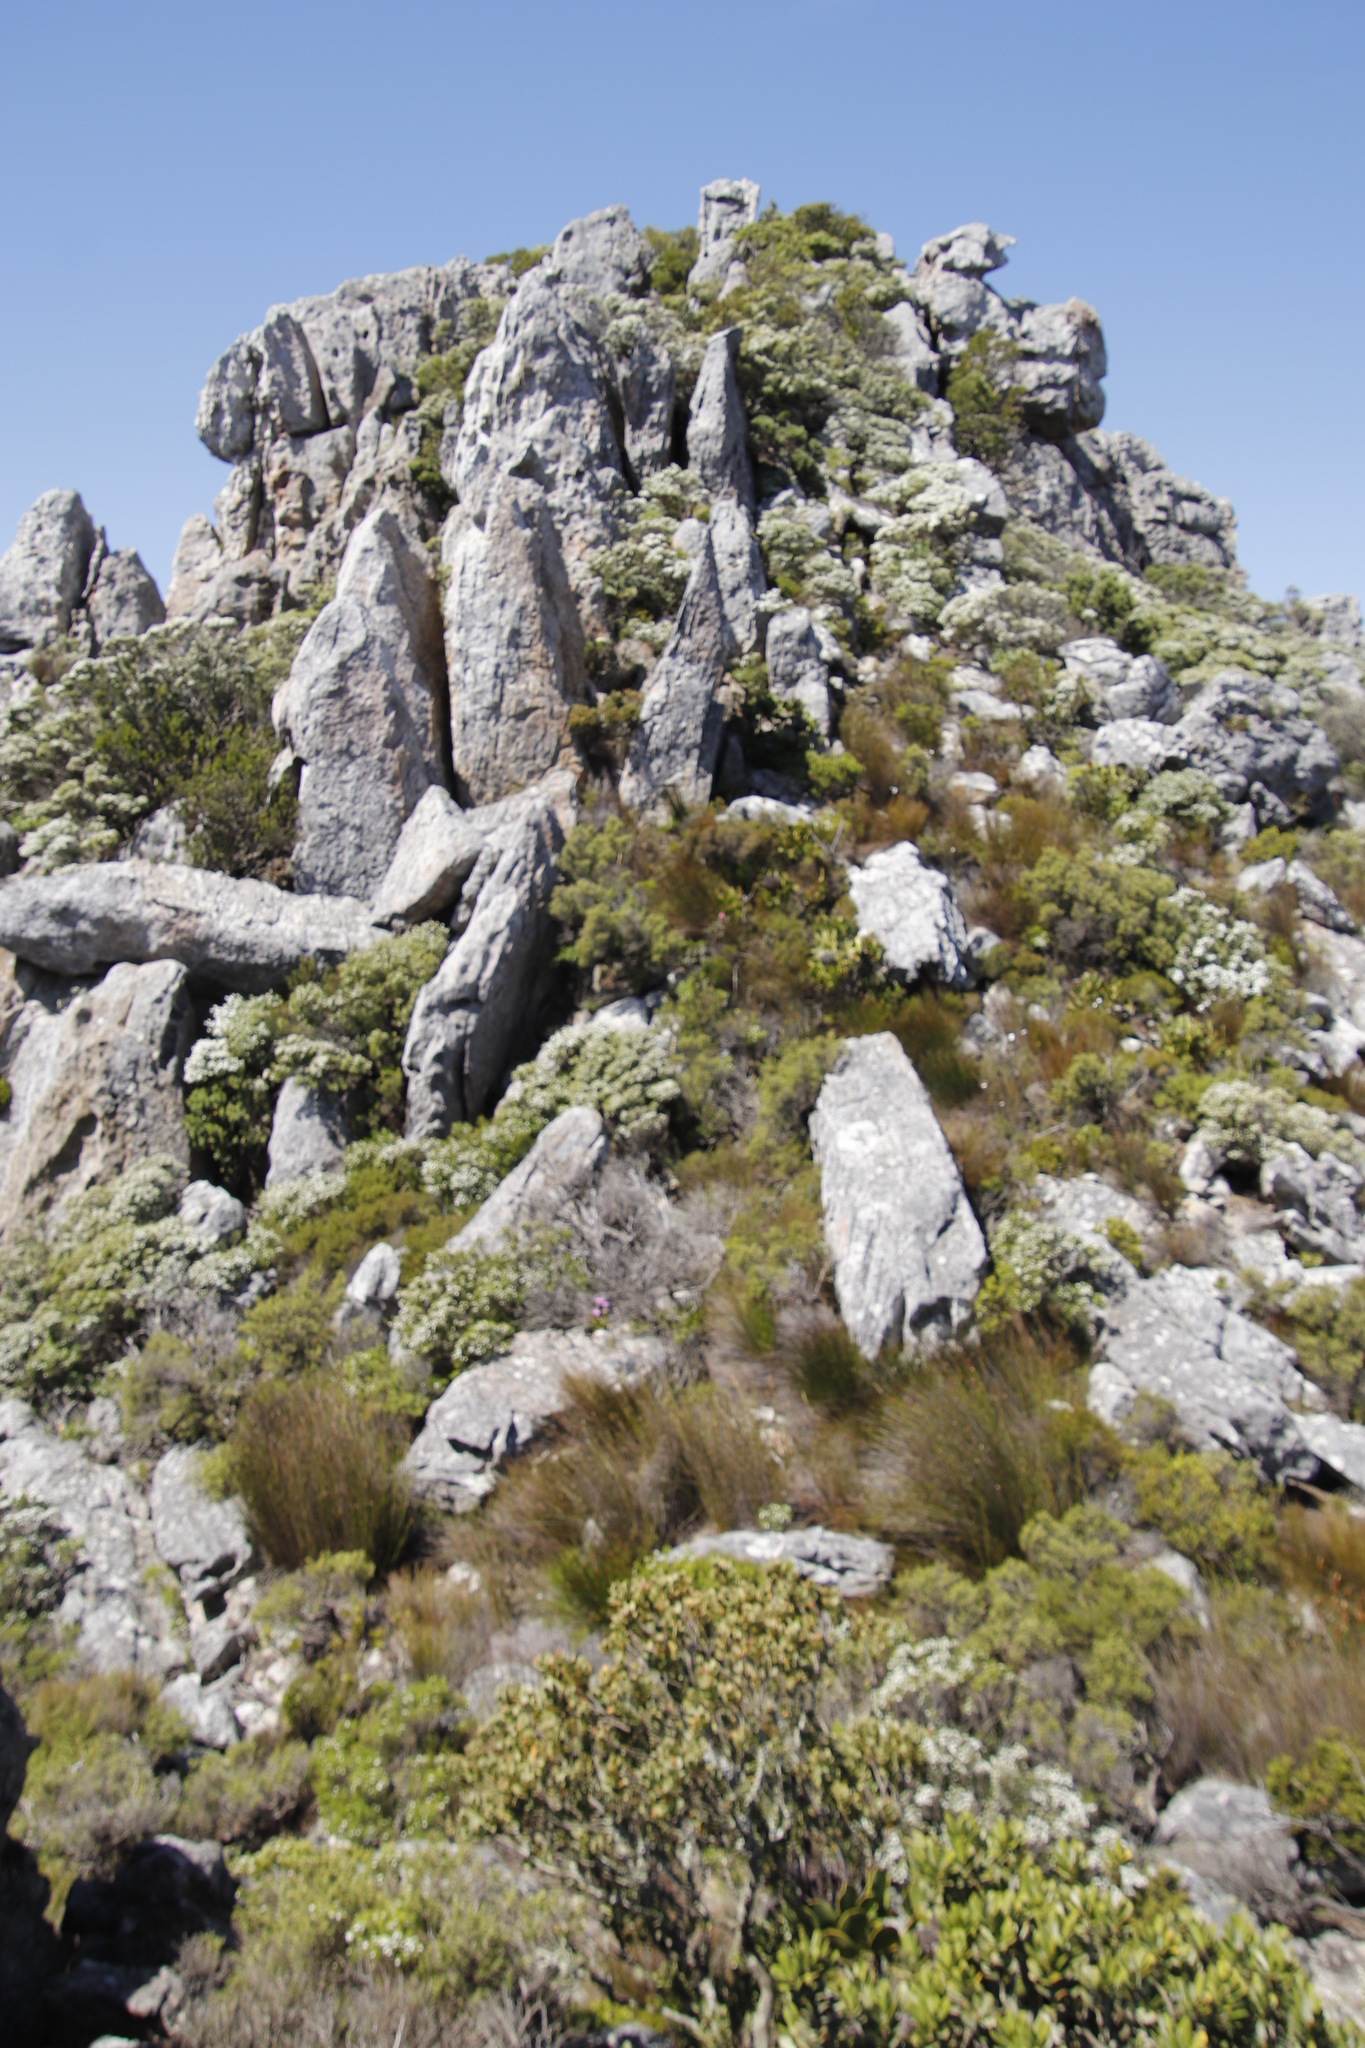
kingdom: Plantae
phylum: Tracheophyta
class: Magnoliopsida
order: Sapindales
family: Rutaceae
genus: Coleonema
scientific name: Coleonema album
